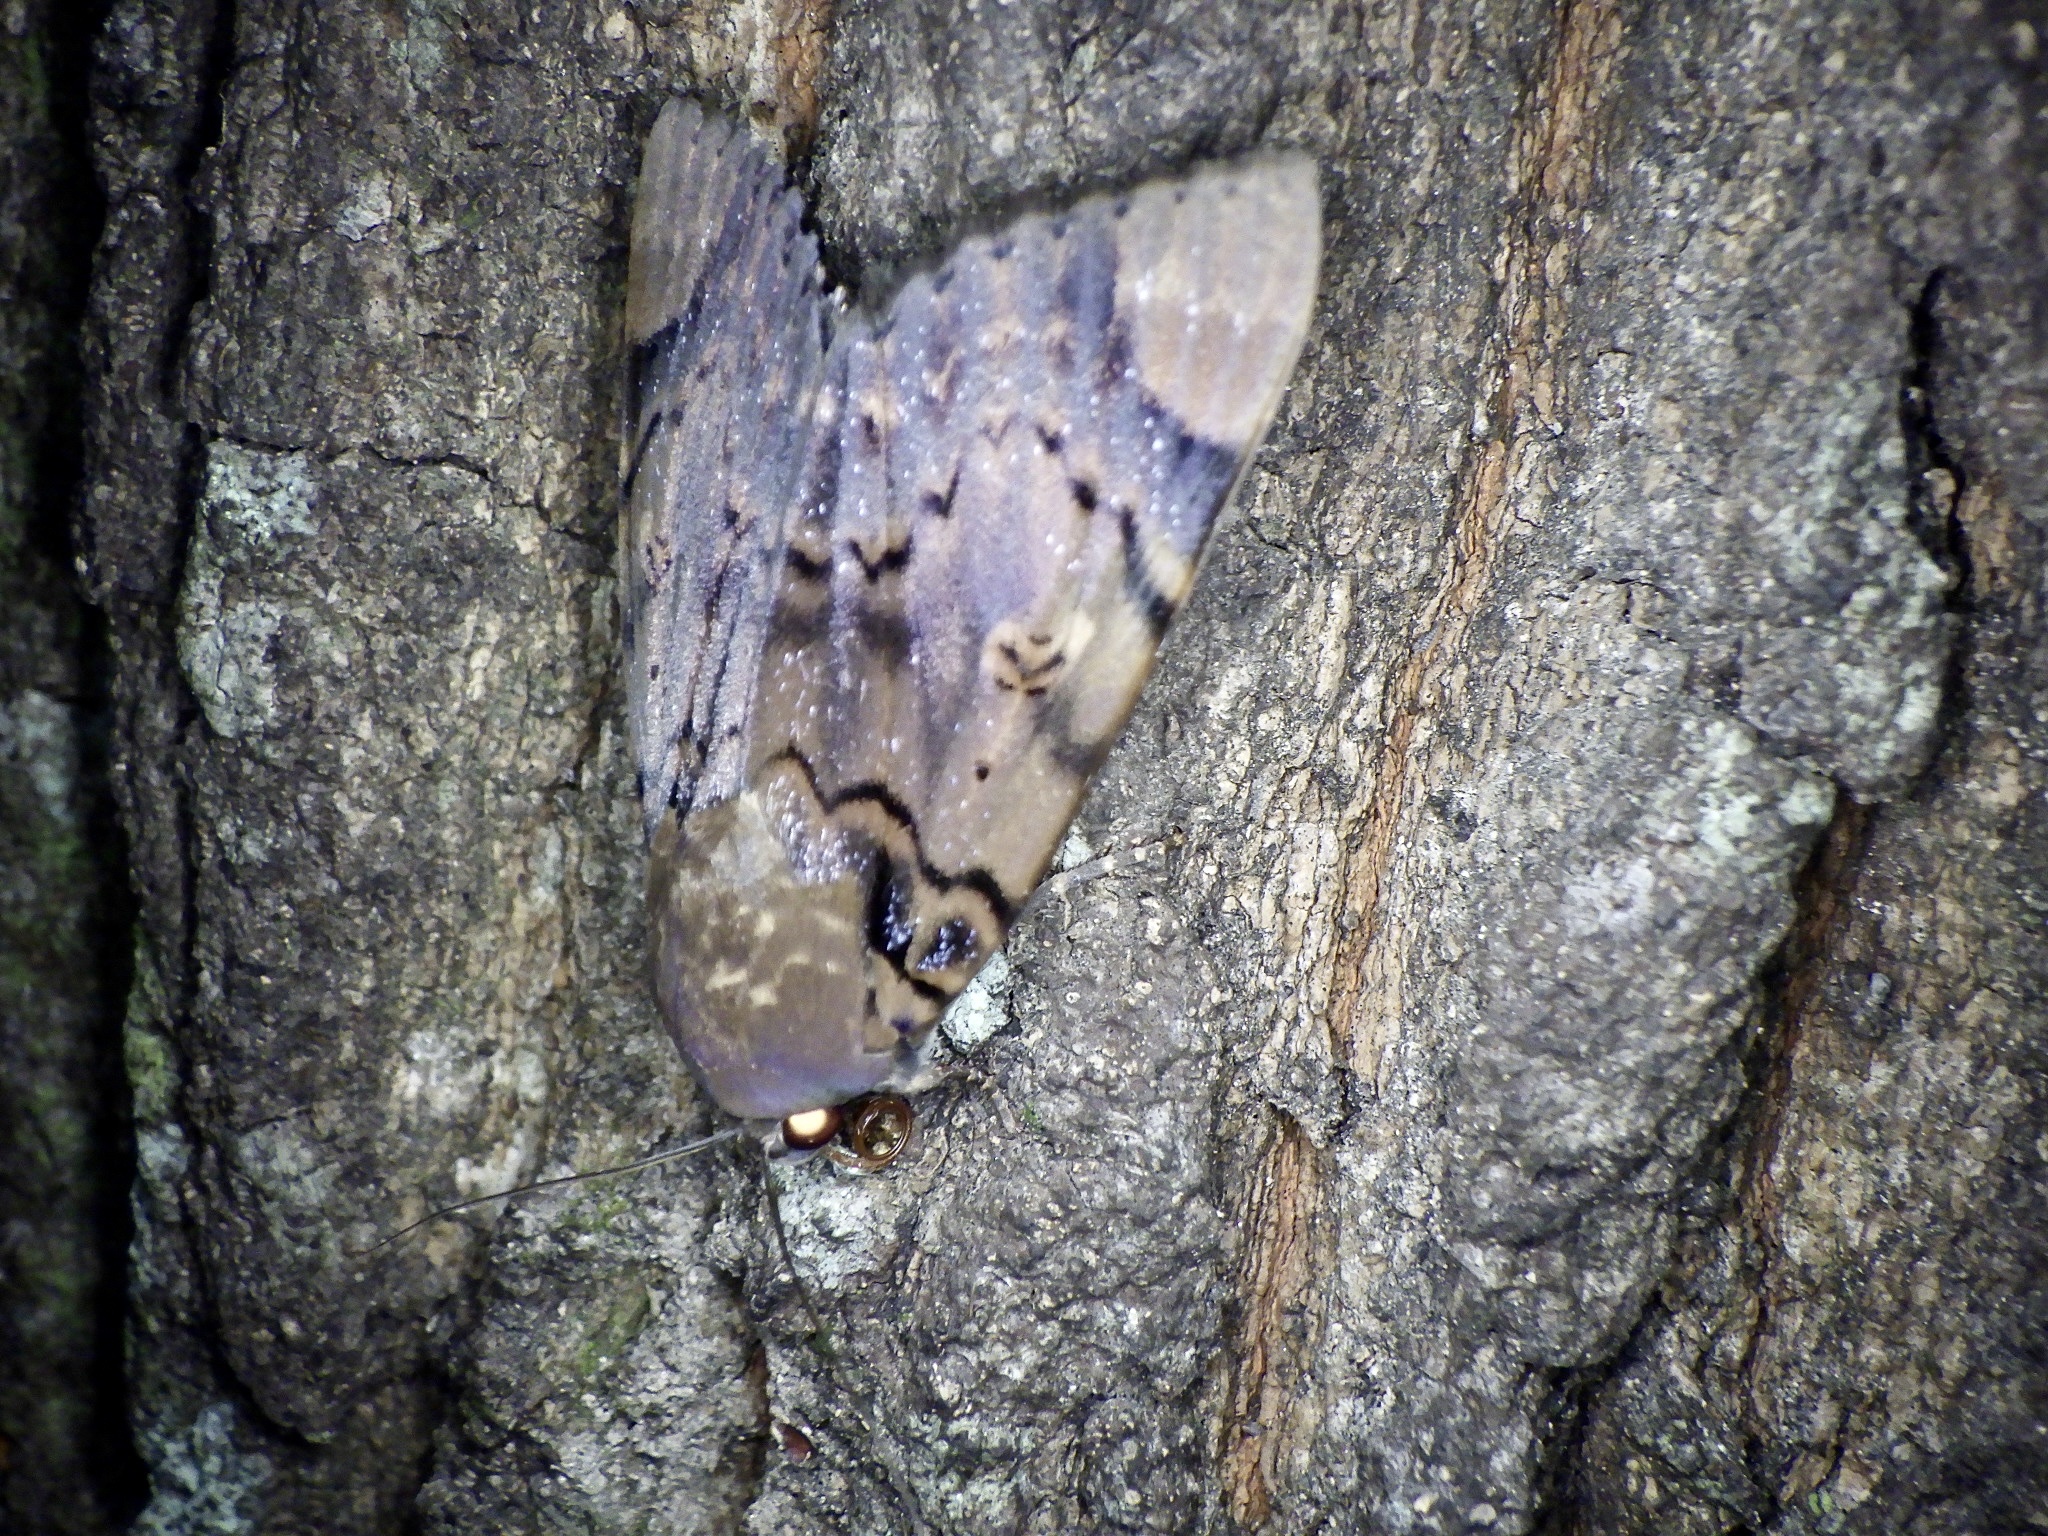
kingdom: Animalia
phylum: Arthropoda
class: Insecta
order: Lepidoptera
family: Erebidae
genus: Arcte
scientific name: Arcte coerula
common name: Ramie moth
